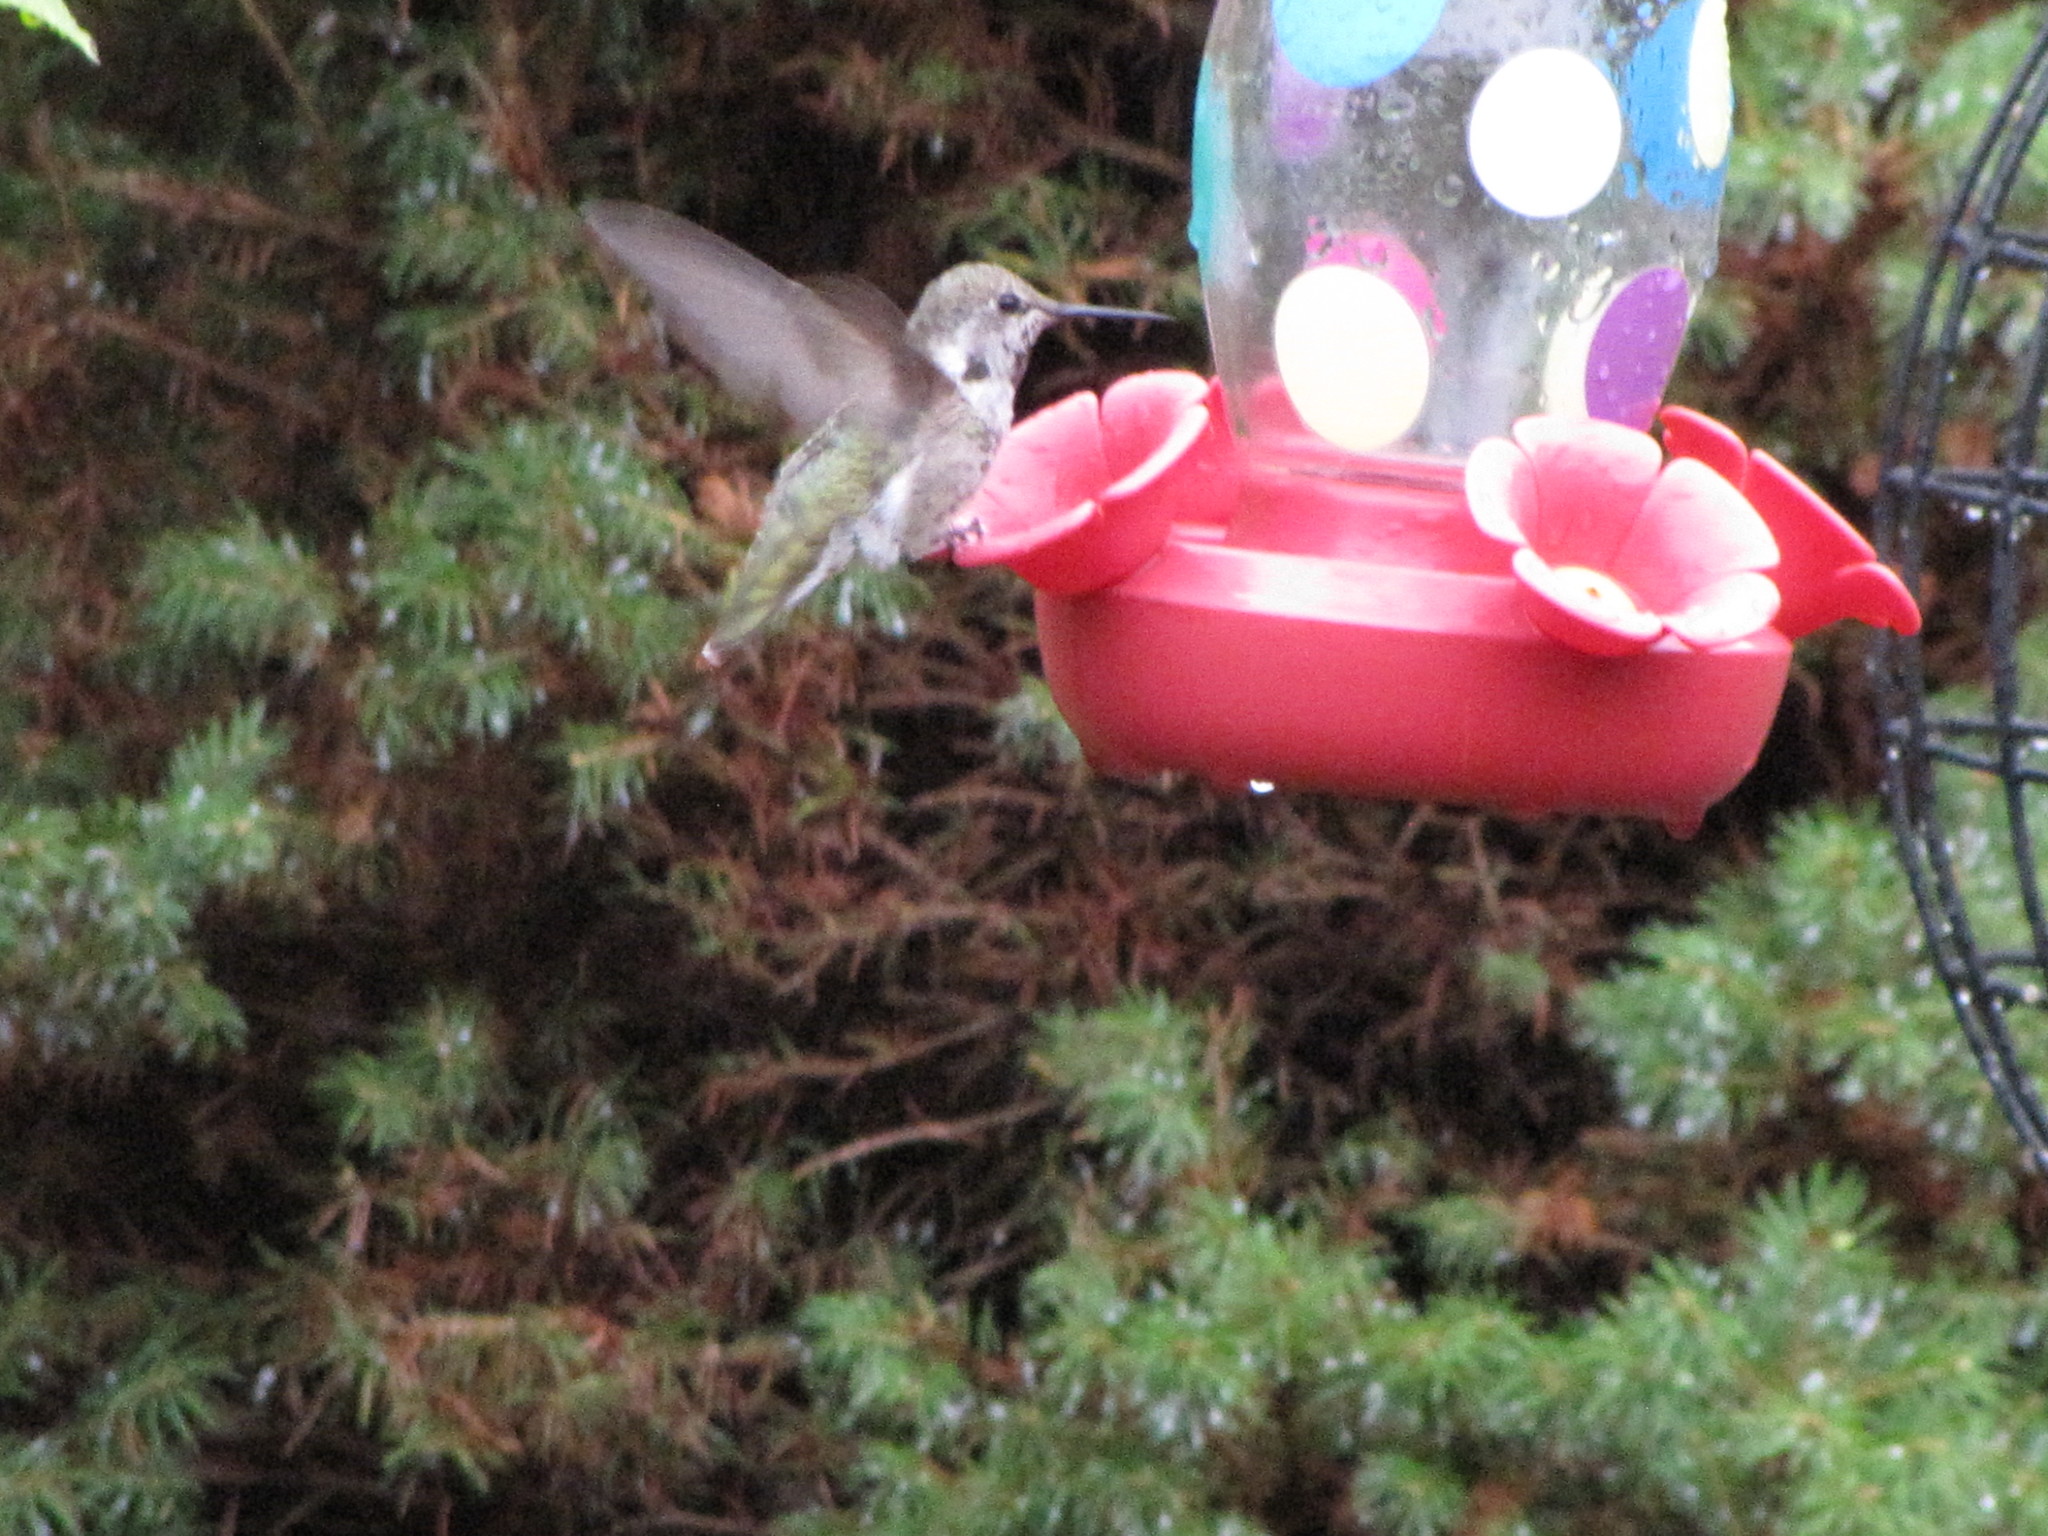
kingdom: Animalia
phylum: Chordata
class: Aves
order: Apodiformes
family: Trochilidae
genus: Calypte
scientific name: Calypte anna
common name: Anna's hummingbird
